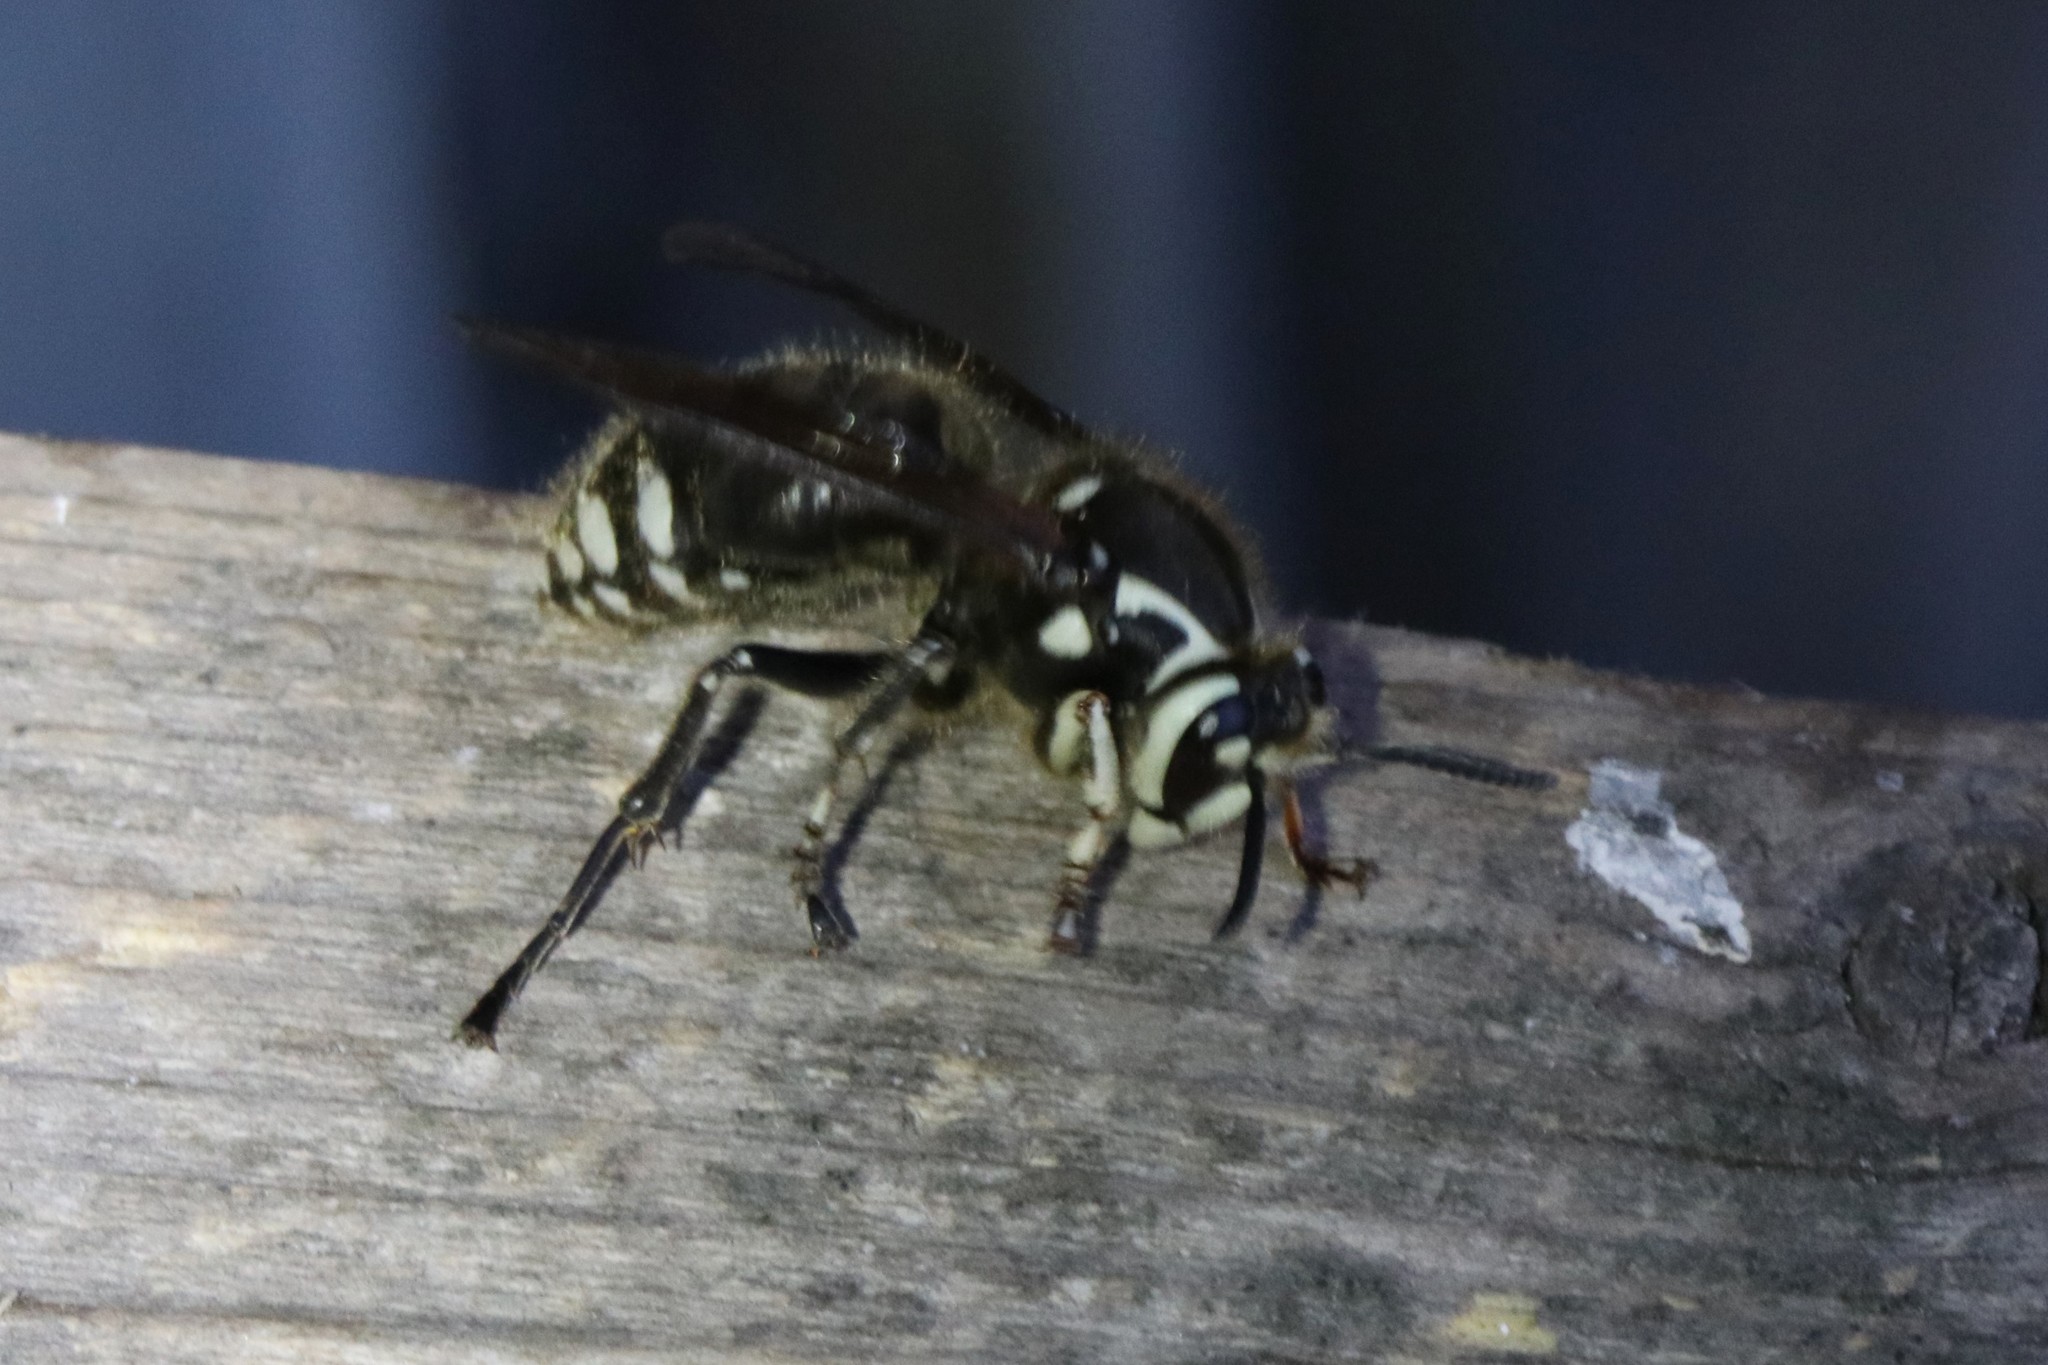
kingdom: Animalia
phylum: Arthropoda
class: Insecta
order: Hymenoptera
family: Vespidae
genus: Dolichovespula
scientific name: Dolichovespula maculata
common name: Bald-faced hornet
